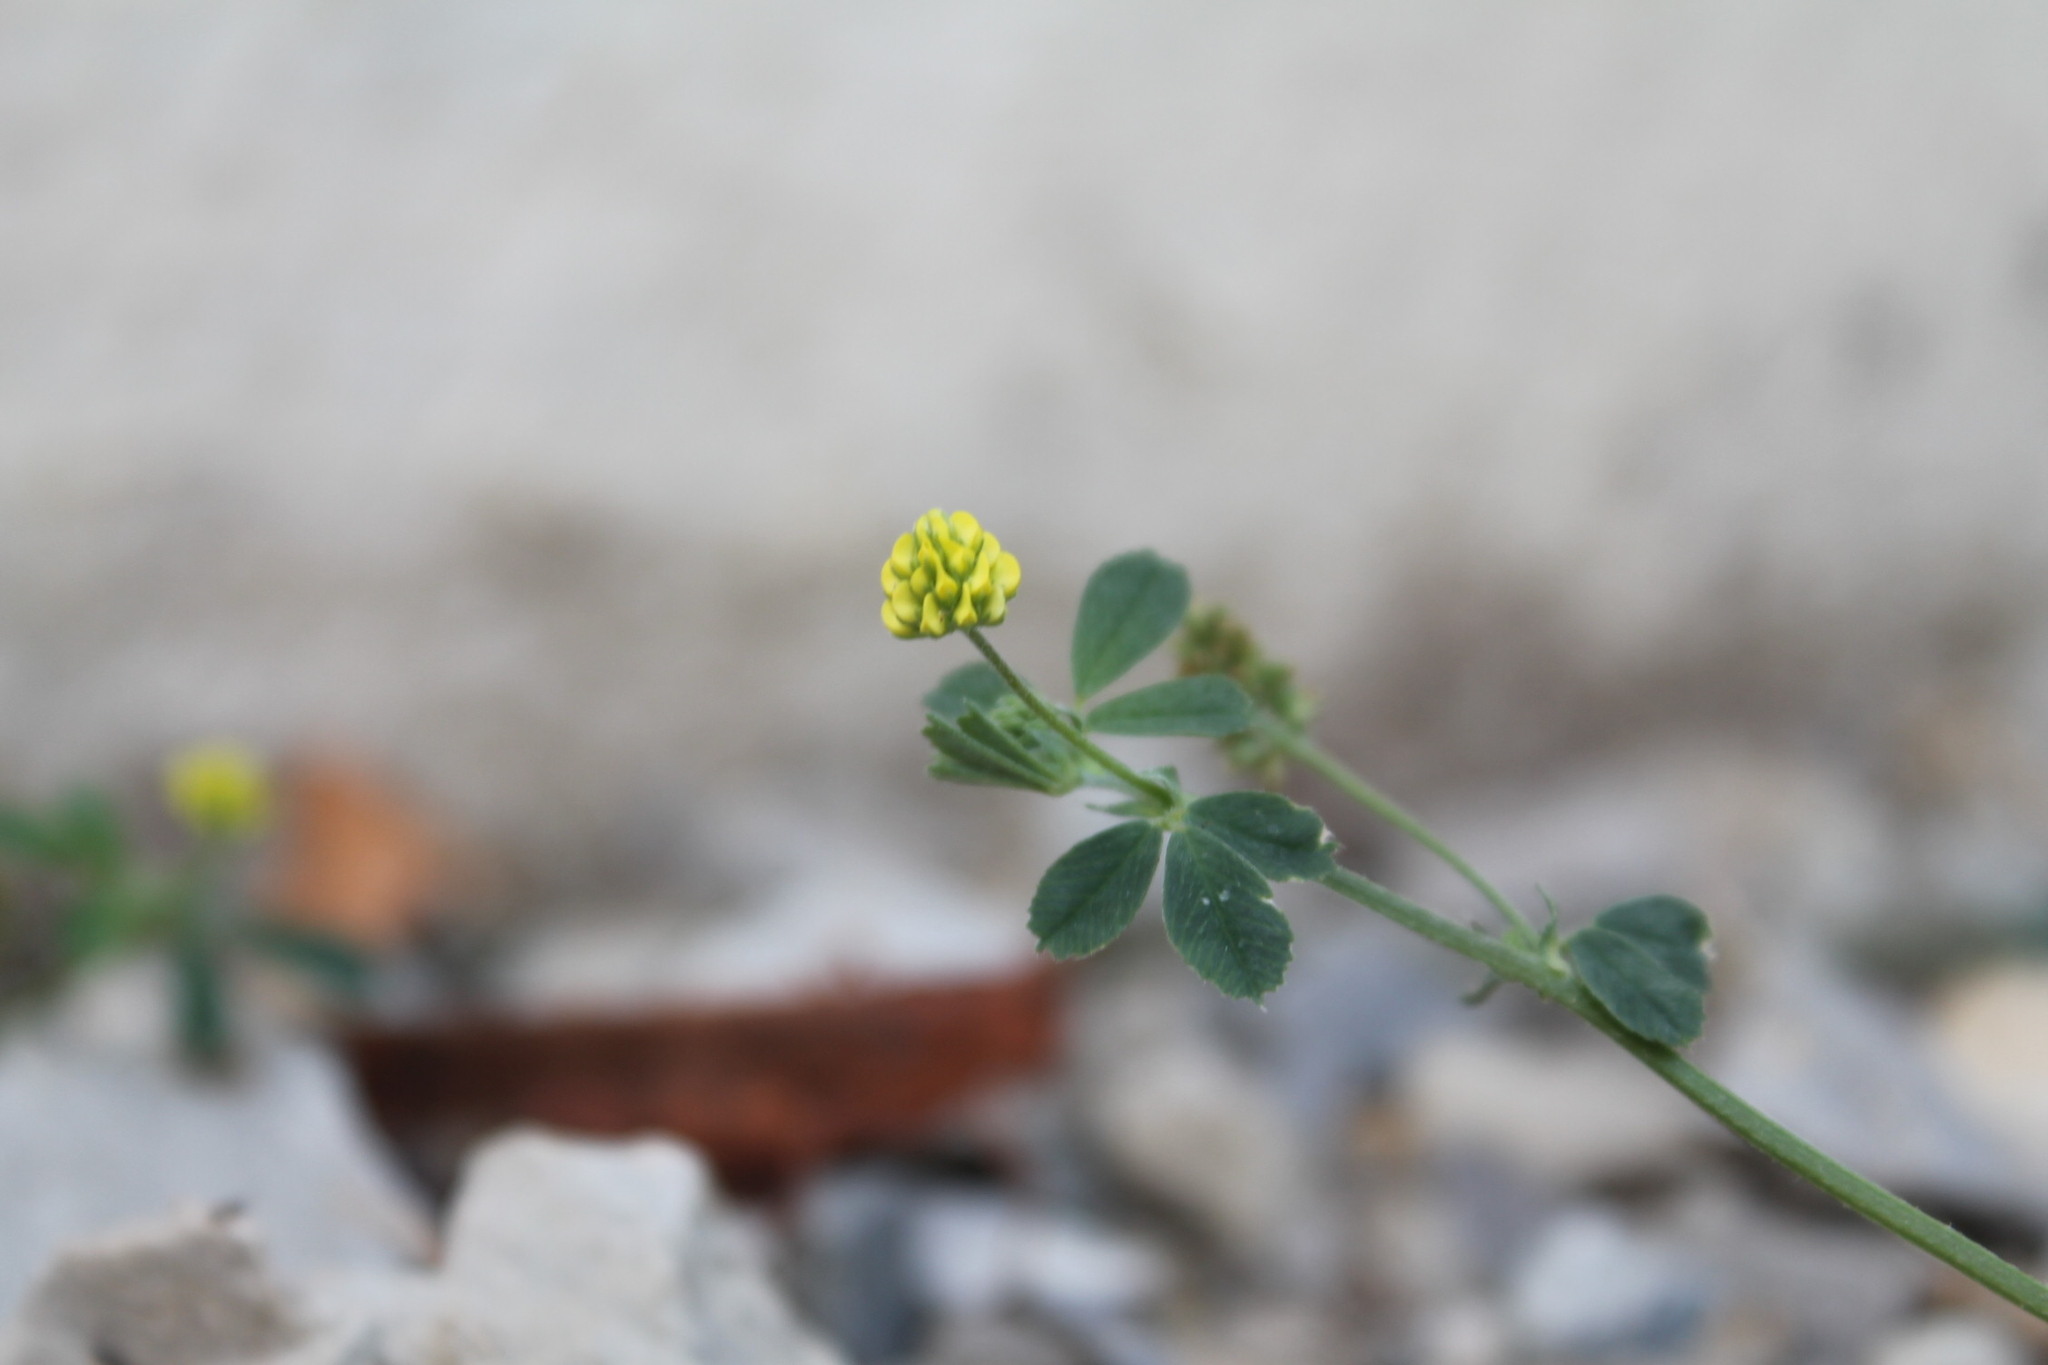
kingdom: Plantae
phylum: Tracheophyta
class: Magnoliopsida
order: Fabales
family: Fabaceae
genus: Medicago
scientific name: Medicago lupulina
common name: Black medick
